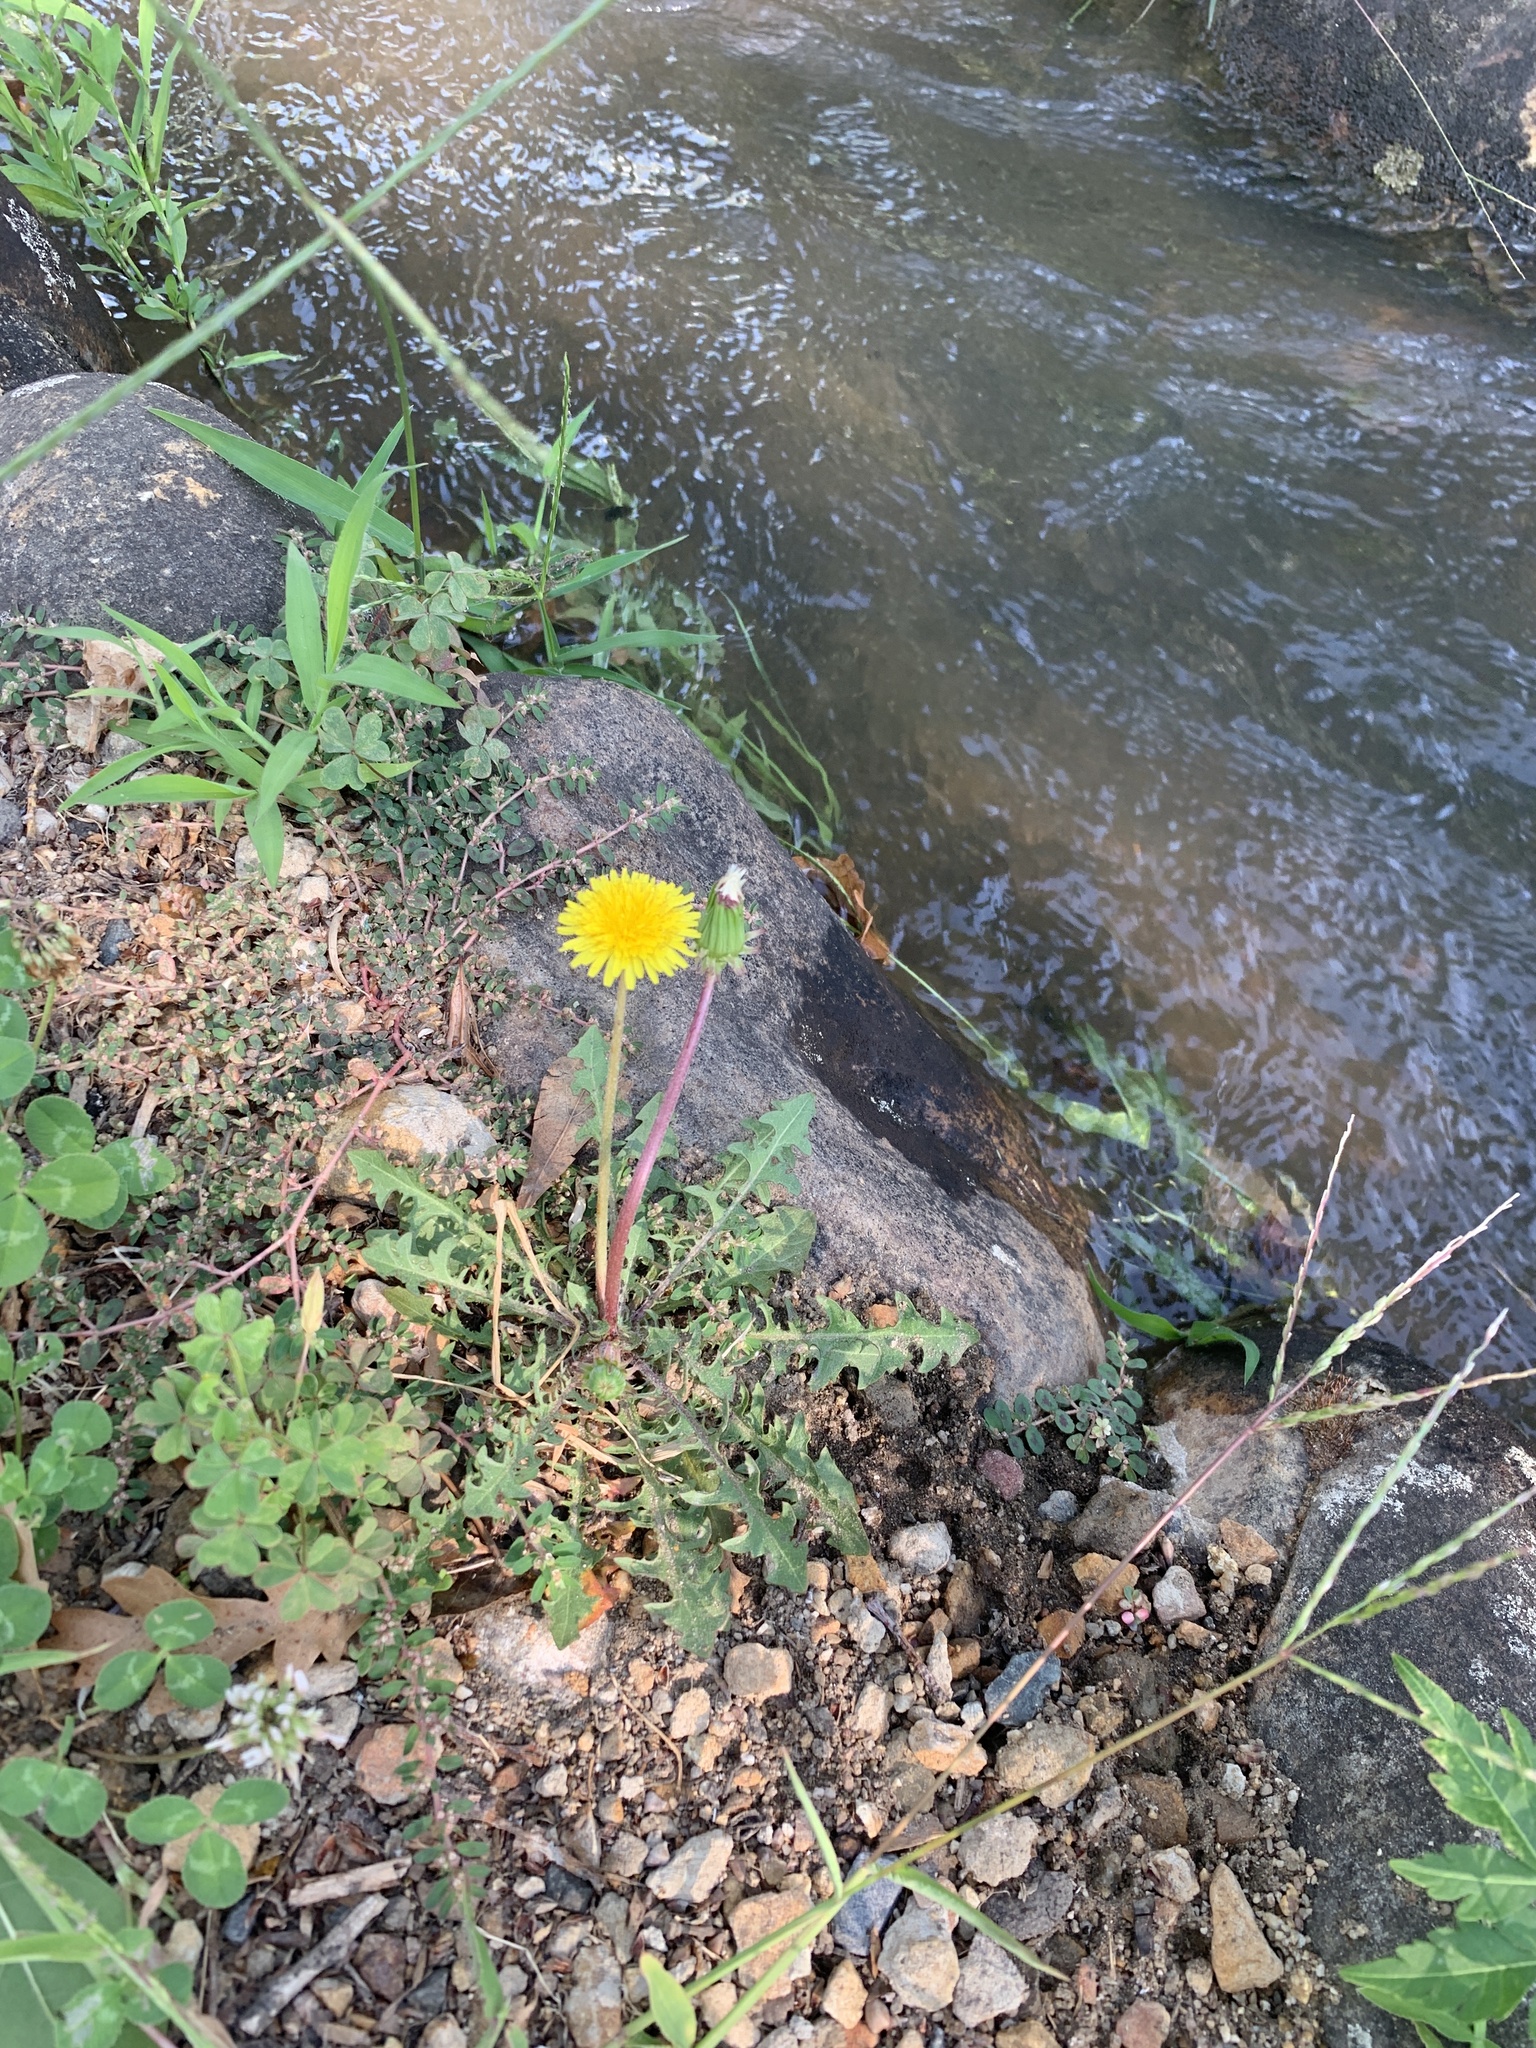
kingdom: Plantae
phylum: Tracheophyta
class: Magnoliopsida
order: Asterales
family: Asteraceae
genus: Taraxacum
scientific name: Taraxacum officinale
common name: Common dandelion
